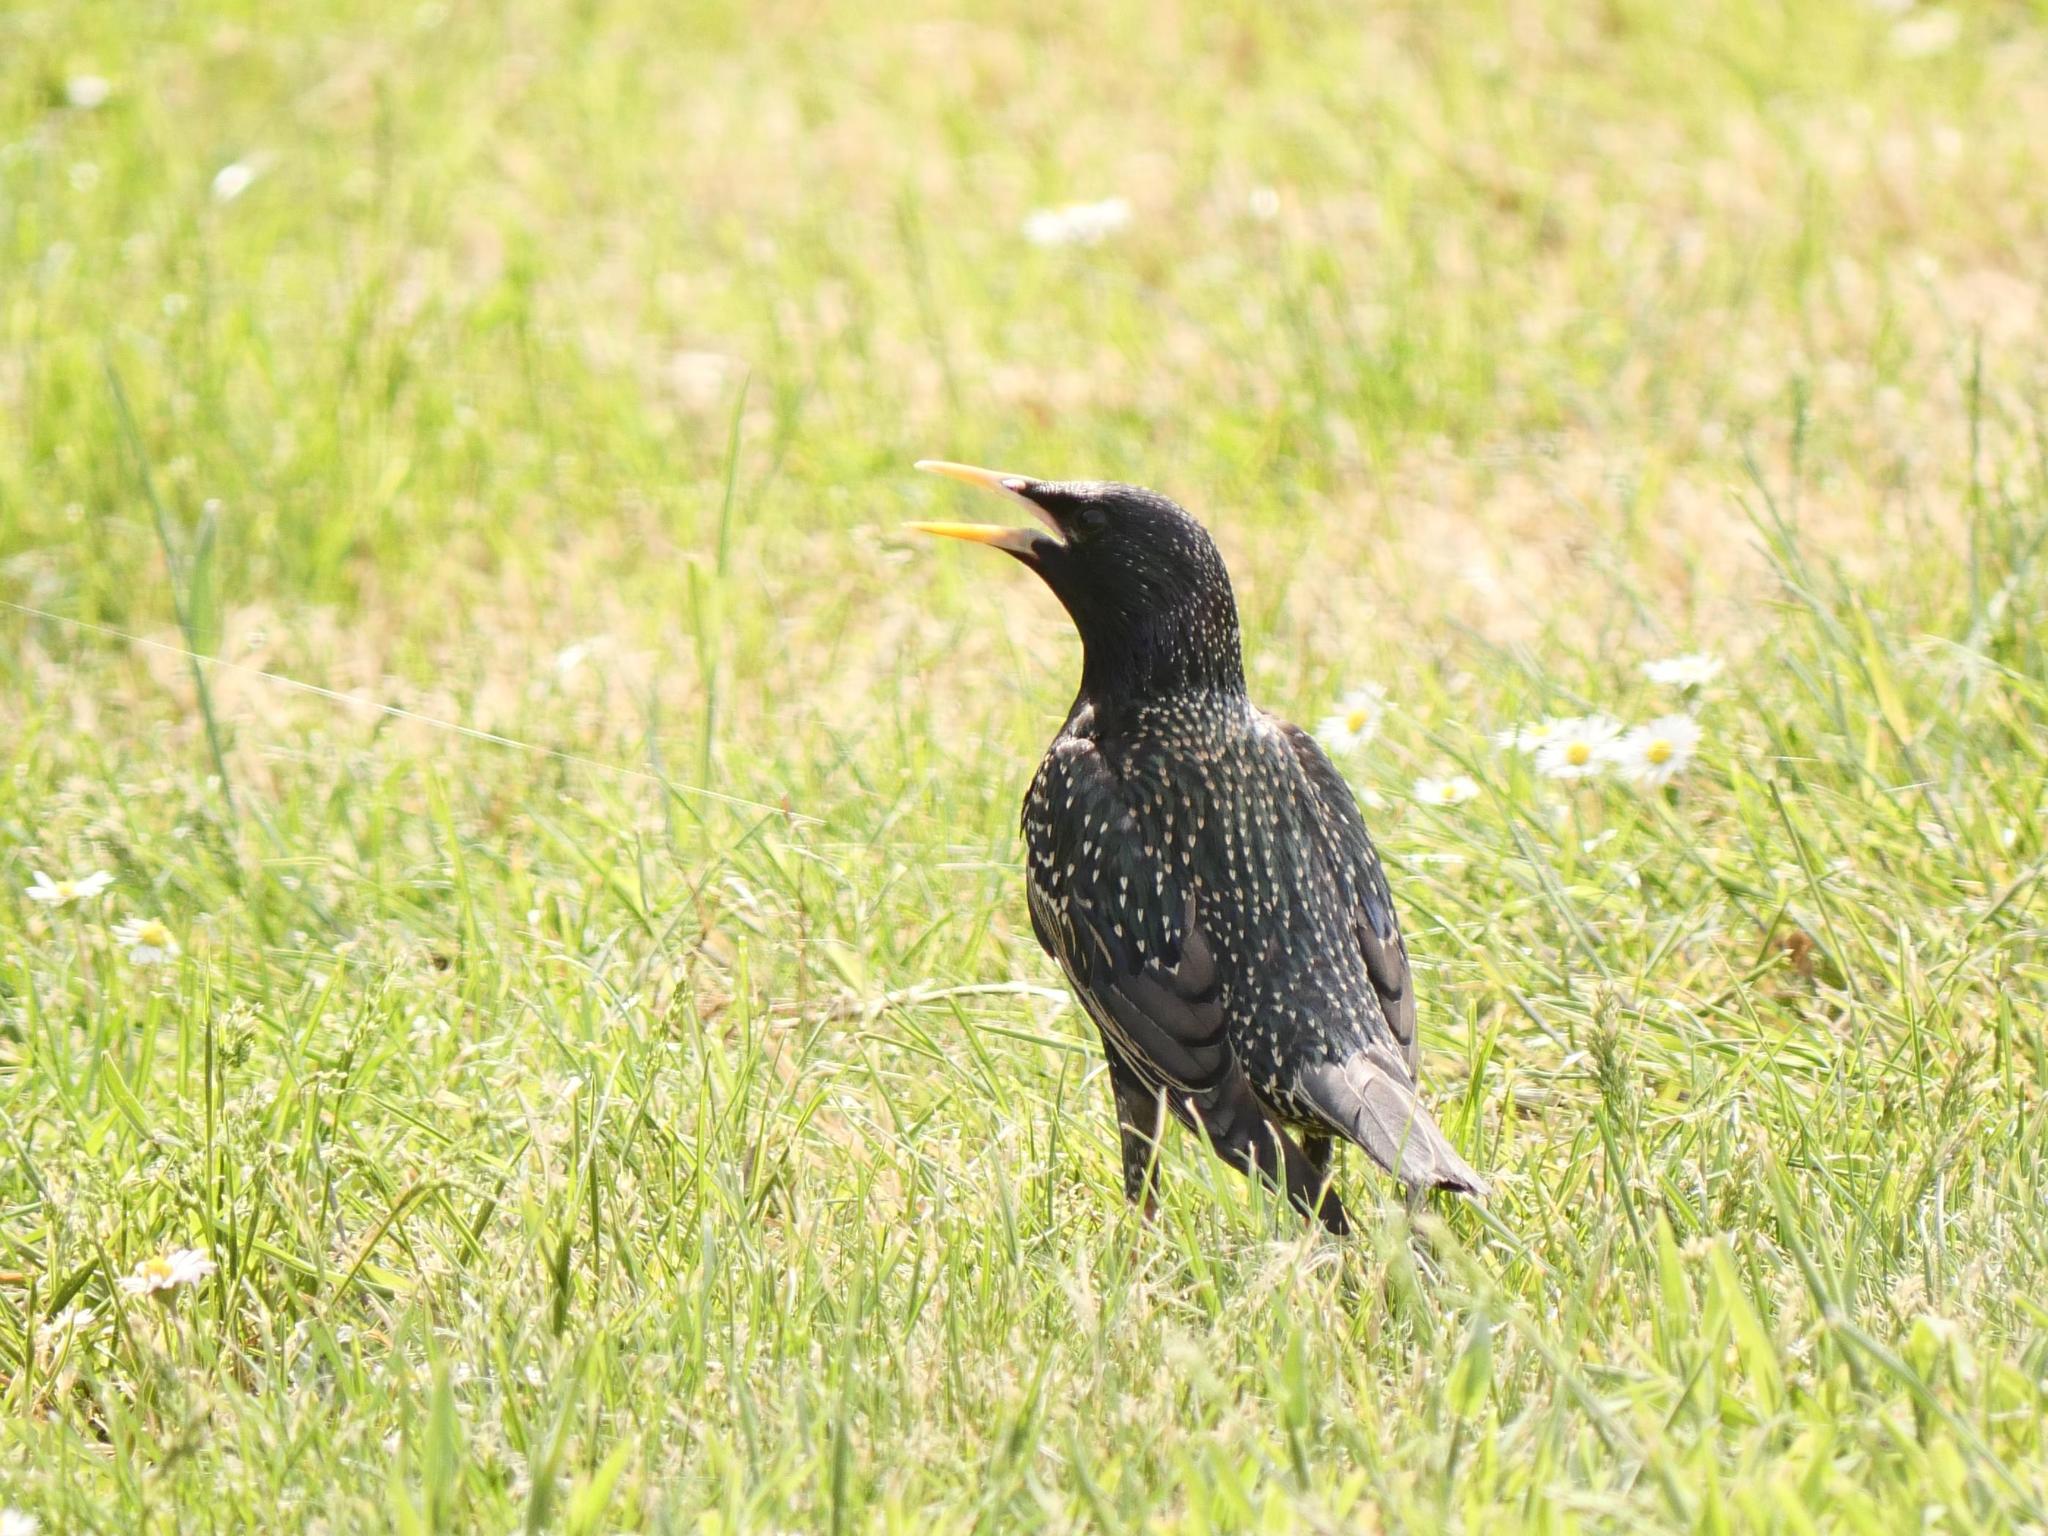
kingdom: Animalia
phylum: Chordata
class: Aves
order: Passeriformes
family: Sturnidae
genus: Sturnus
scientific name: Sturnus vulgaris
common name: Common starling
